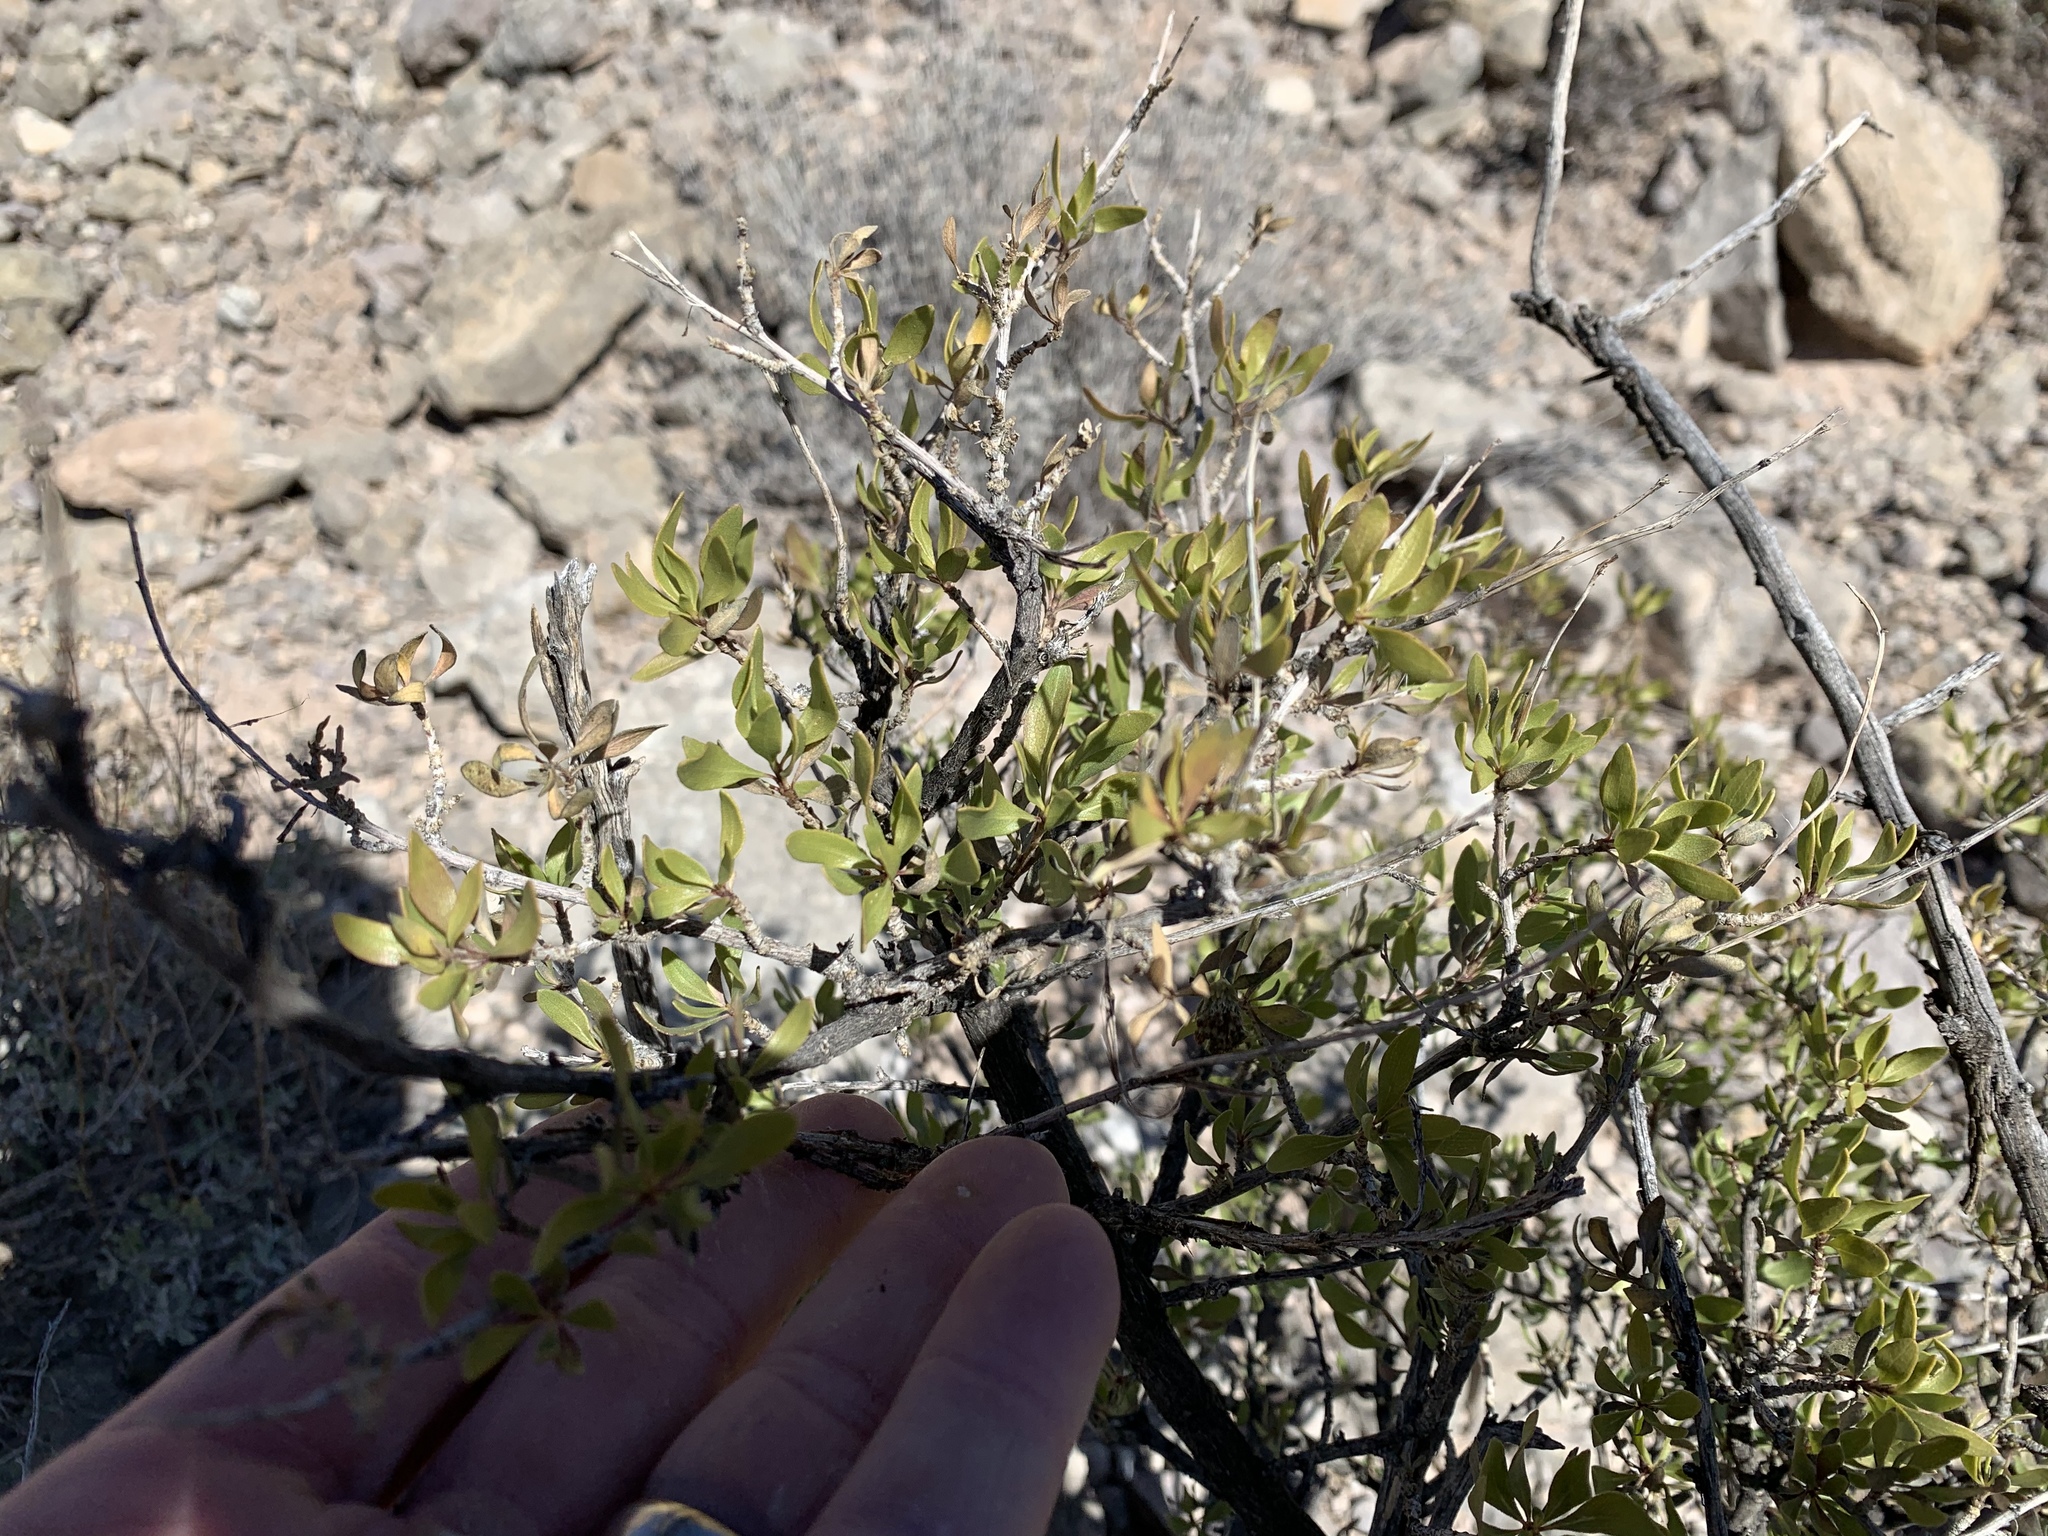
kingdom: Plantae
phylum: Tracheophyta
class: Magnoliopsida
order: Asterales
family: Asteraceae
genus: Flourensia
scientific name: Flourensia cernua
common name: Varnishbush
